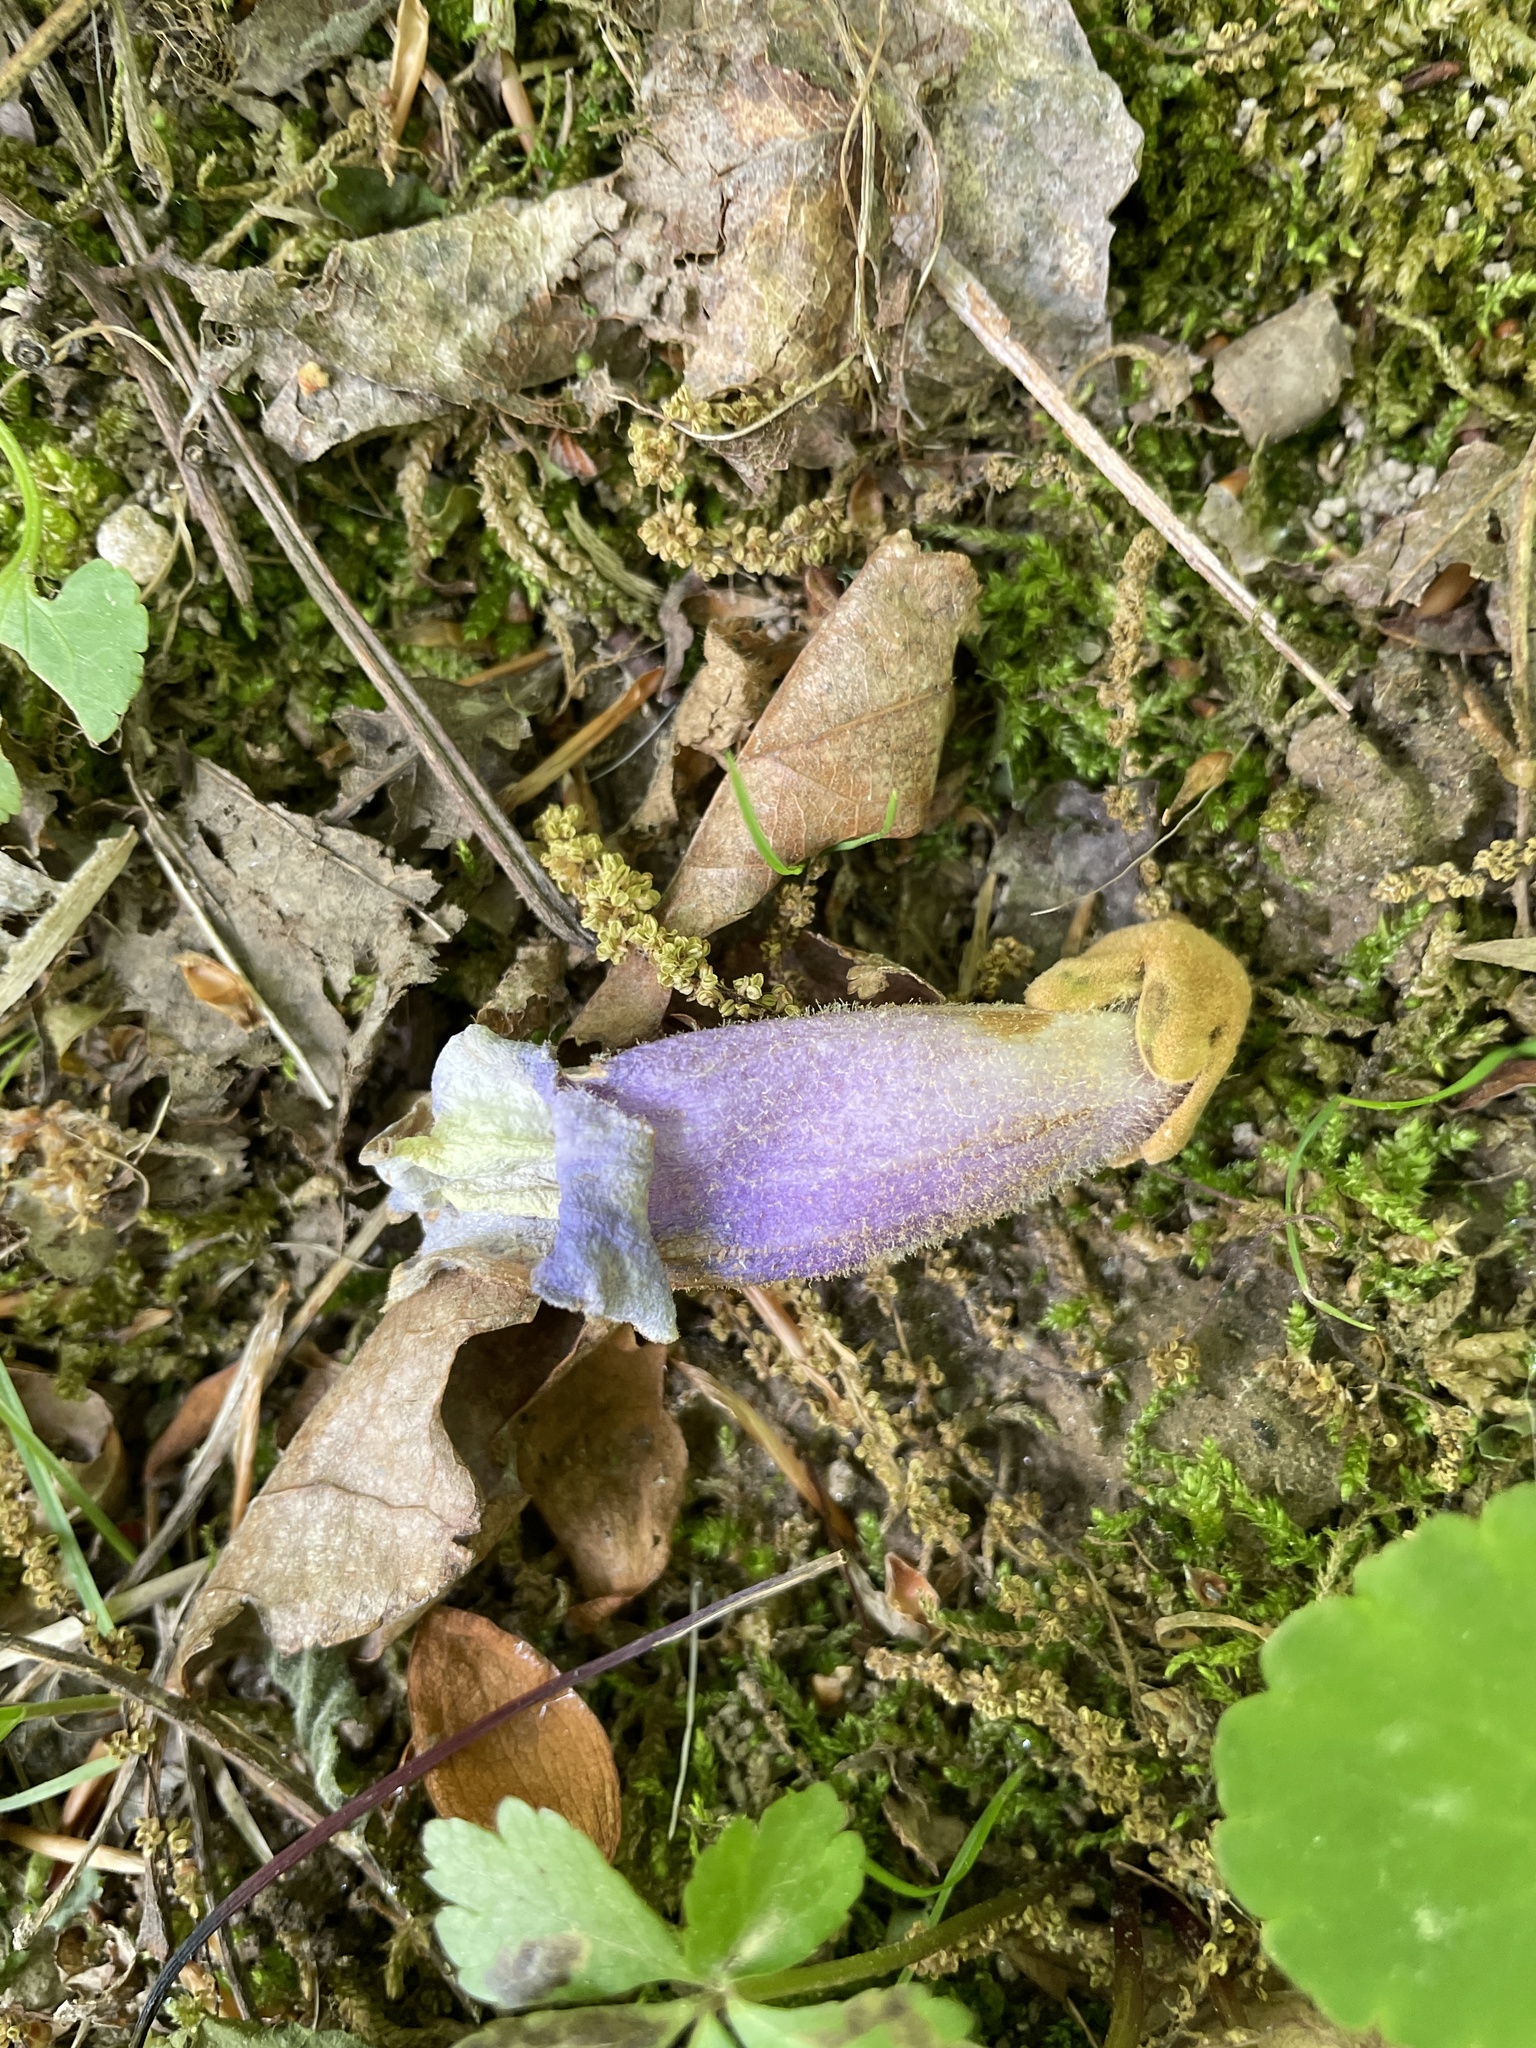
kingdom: Plantae
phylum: Tracheophyta
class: Magnoliopsida
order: Lamiales
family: Paulowniaceae
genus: Paulownia
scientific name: Paulownia tomentosa
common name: Foxglove-tree
